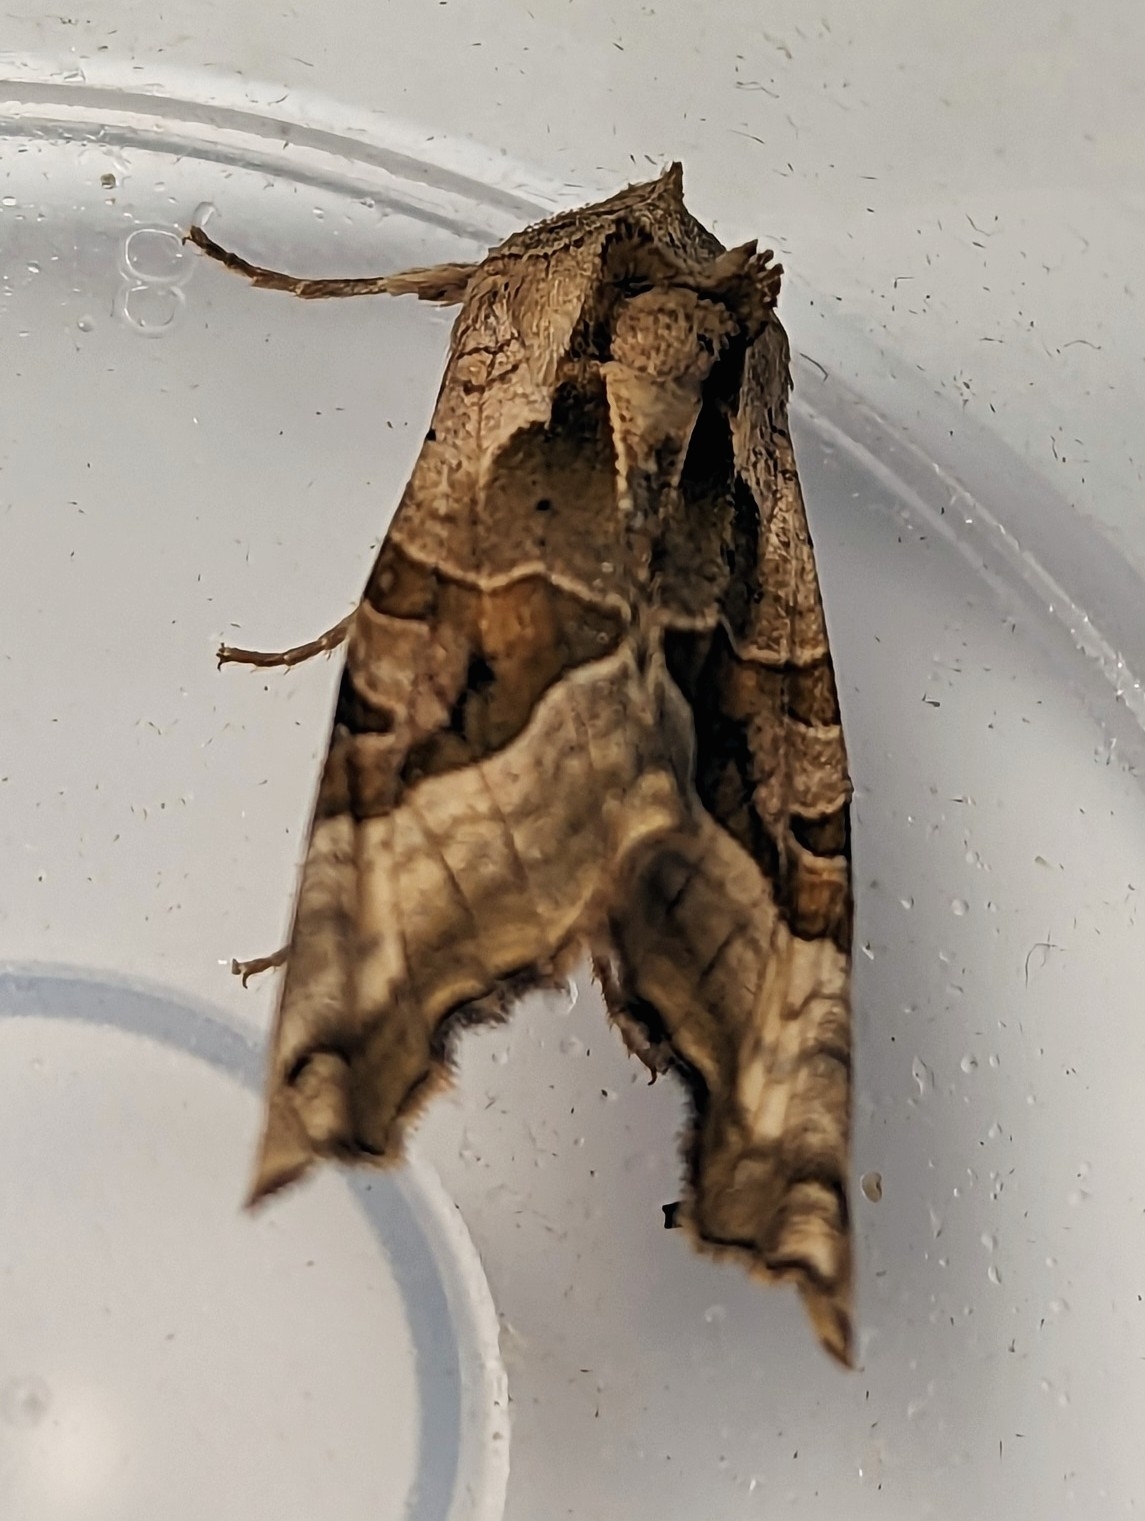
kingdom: Animalia
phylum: Arthropoda
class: Insecta
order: Lepidoptera
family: Noctuidae
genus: Phlogophora
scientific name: Phlogophora meticulosa
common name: Angle shades
